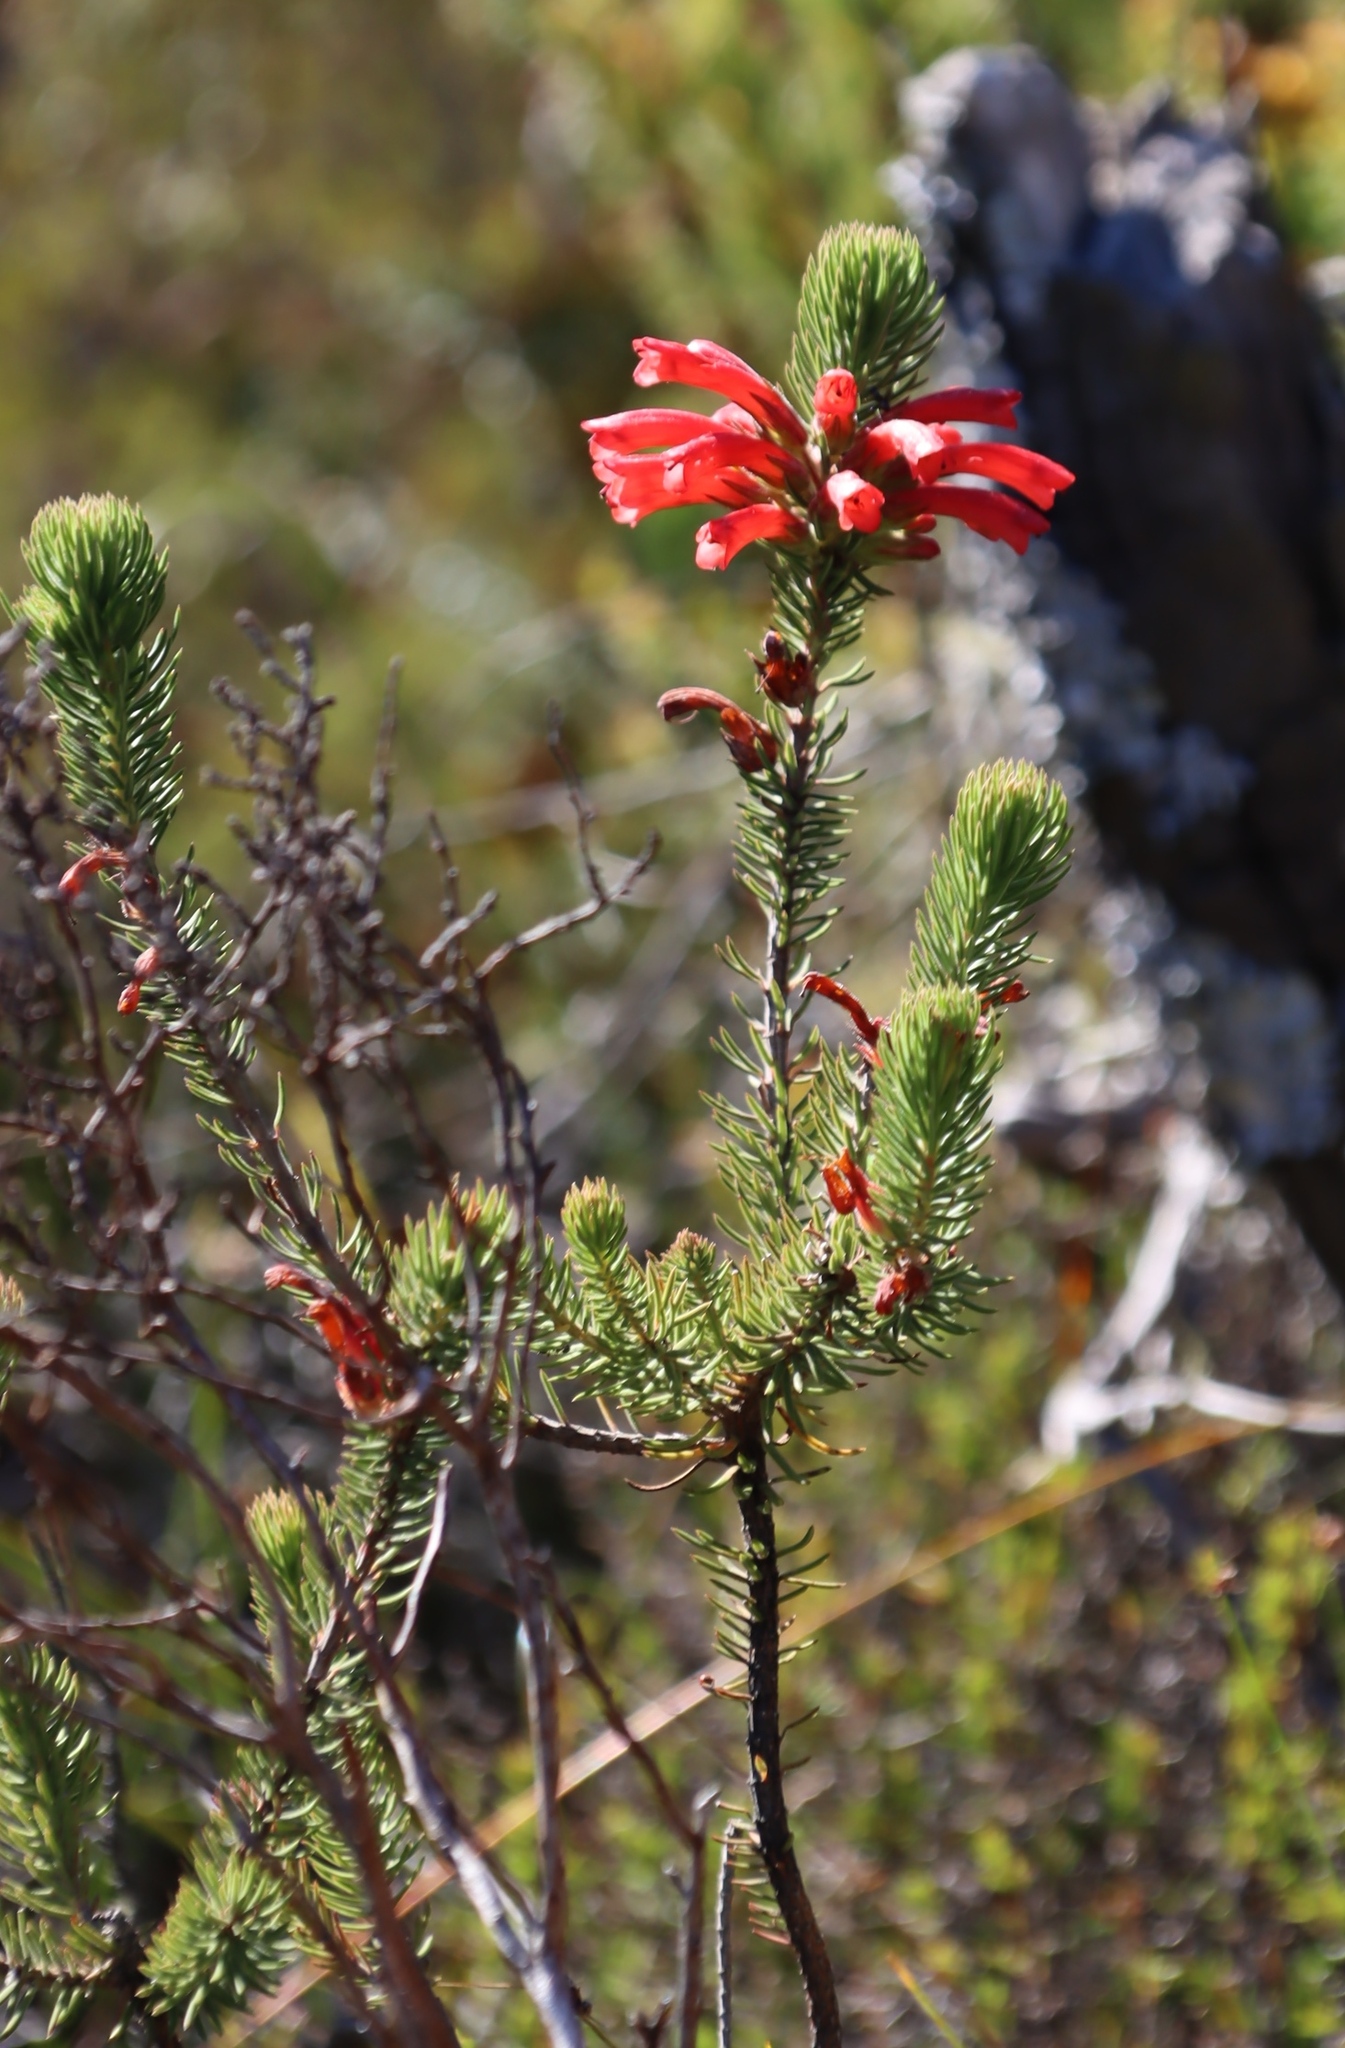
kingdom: Plantae
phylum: Tracheophyta
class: Magnoliopsida
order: Ericales
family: Ericaceae
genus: Erica
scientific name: Erica abietina
